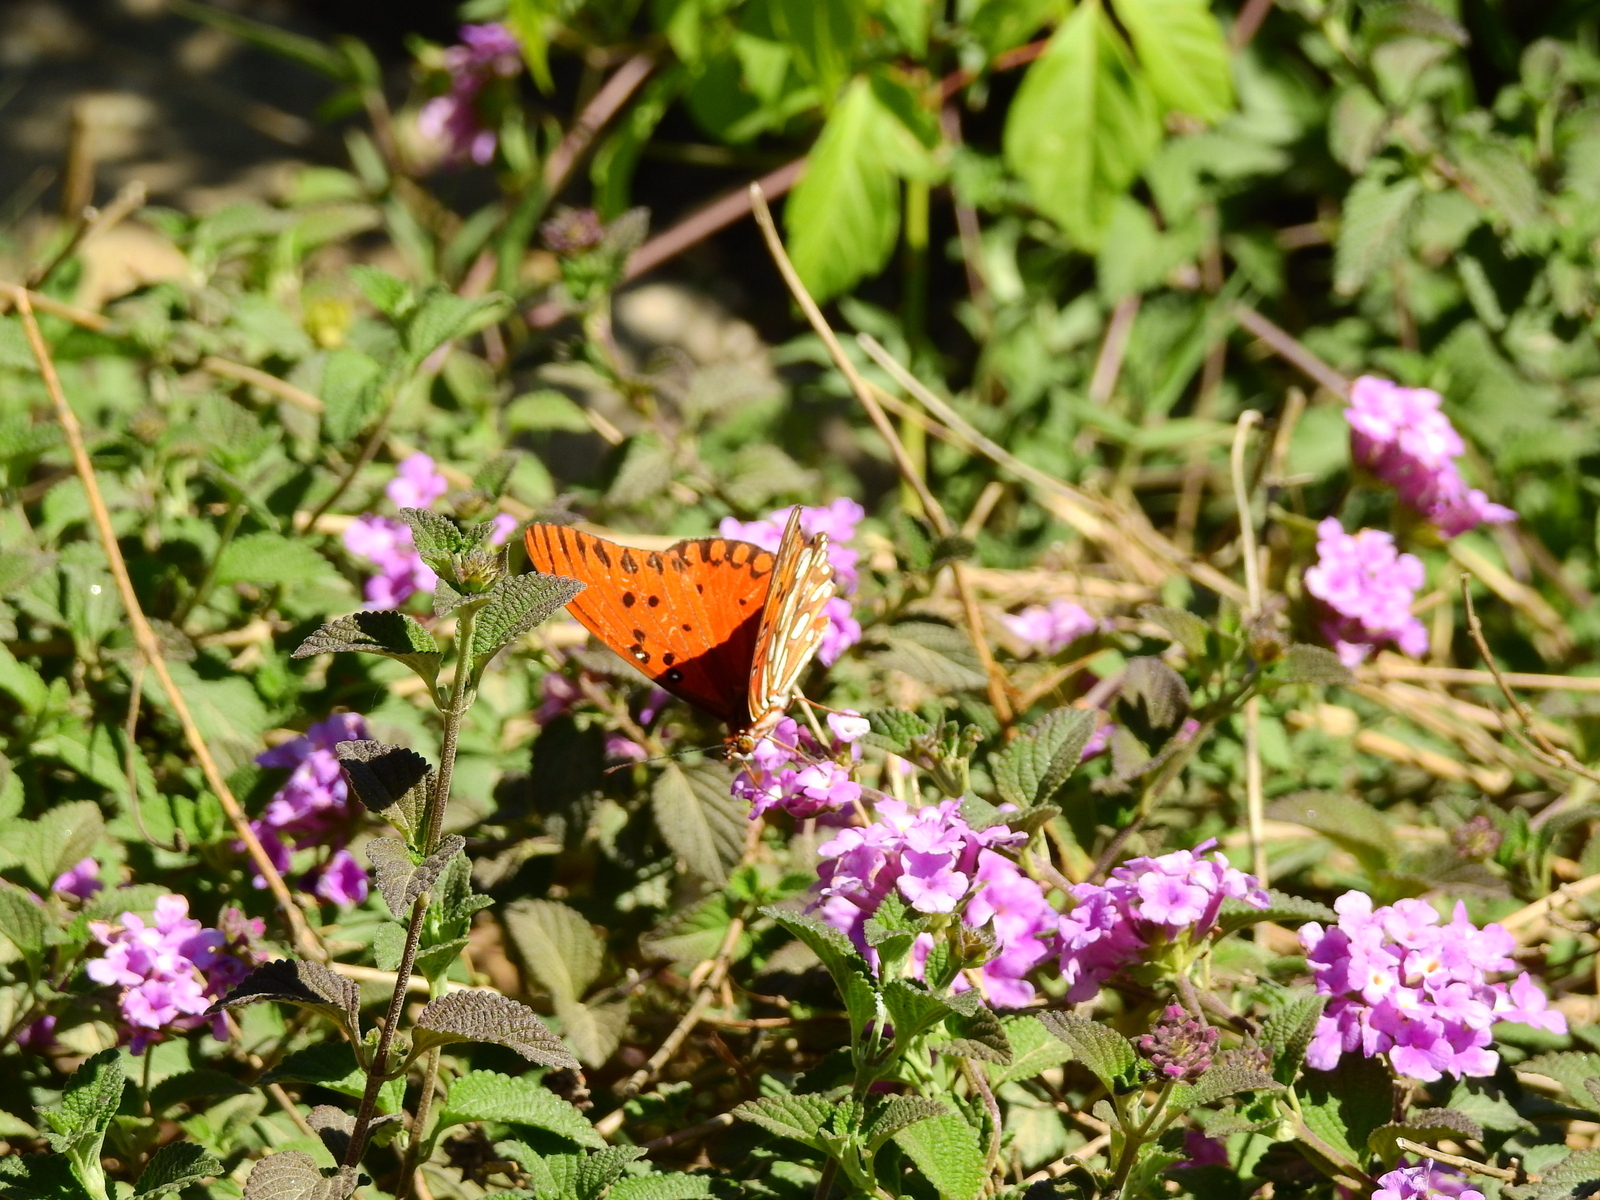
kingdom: Animalia
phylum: Arthropoda
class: Insecta
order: Lepidoptera
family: Nymphalidae
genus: Dione
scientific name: Dione vanillae
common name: Gulf fritillary
